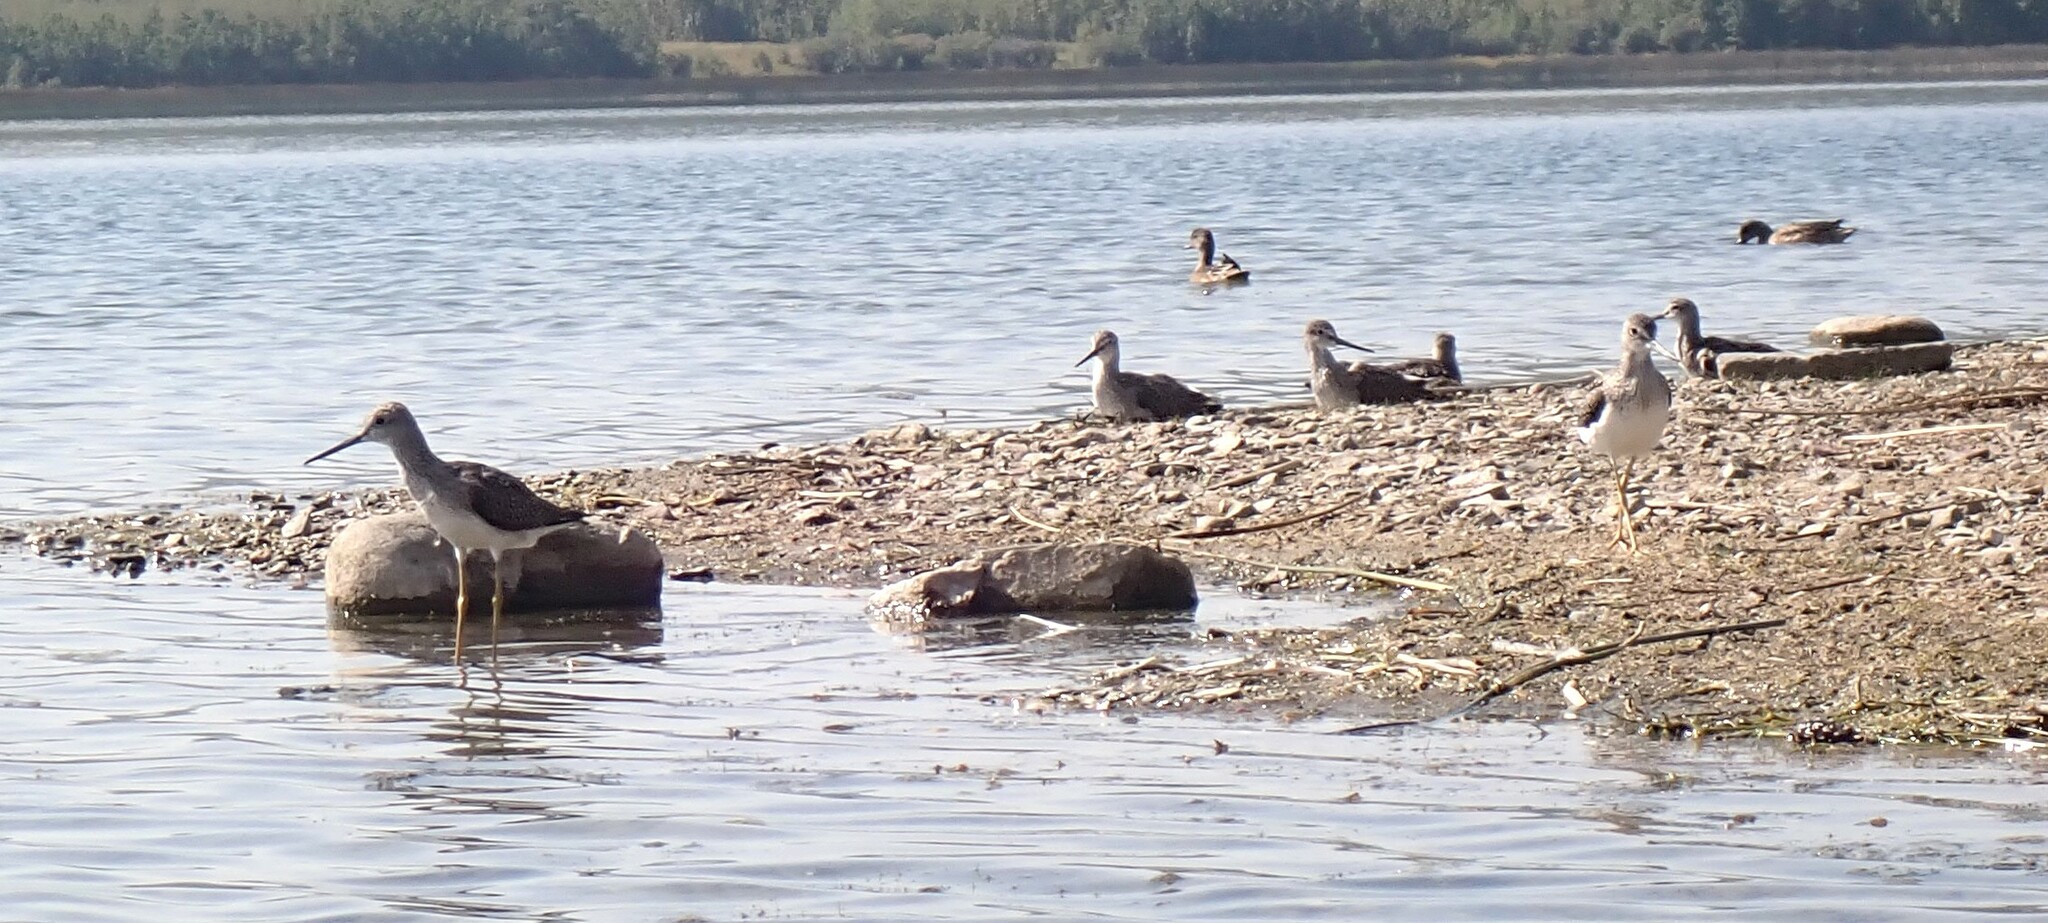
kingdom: Animalia
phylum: Chordata
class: Aves
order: Charadriiformes
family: Scolopacidae
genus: Tringa
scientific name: Tringa melanoleuca
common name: Greater yellowlegs
